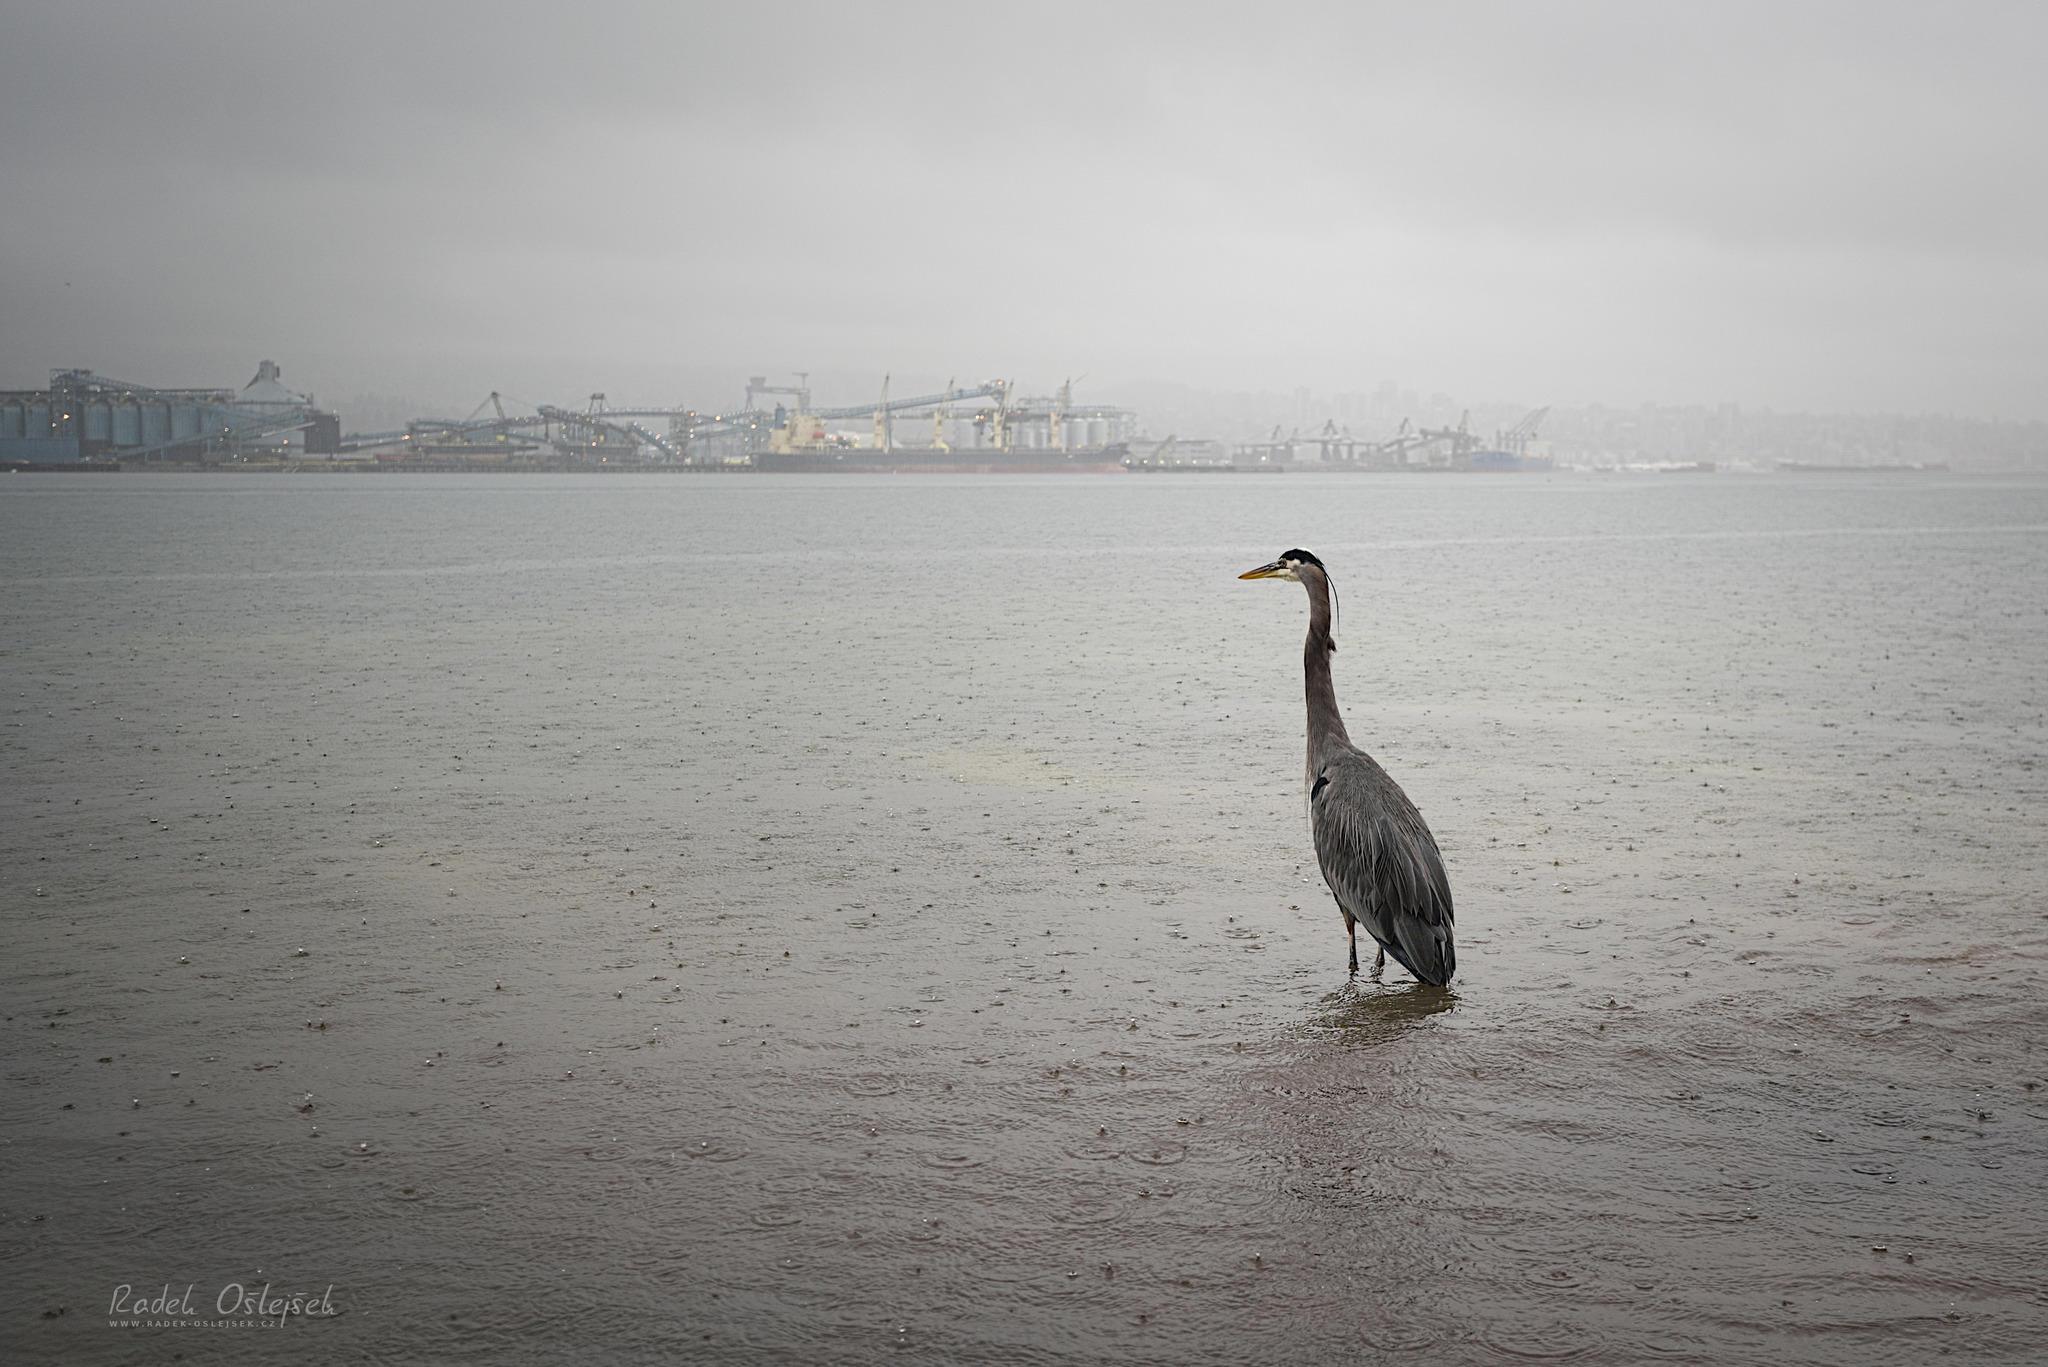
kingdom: Animalia
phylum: Chordata
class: Aves
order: Pelecaniformes
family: Ardeidae
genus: Ardea
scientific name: Ardea herodias
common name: Great blue heron
